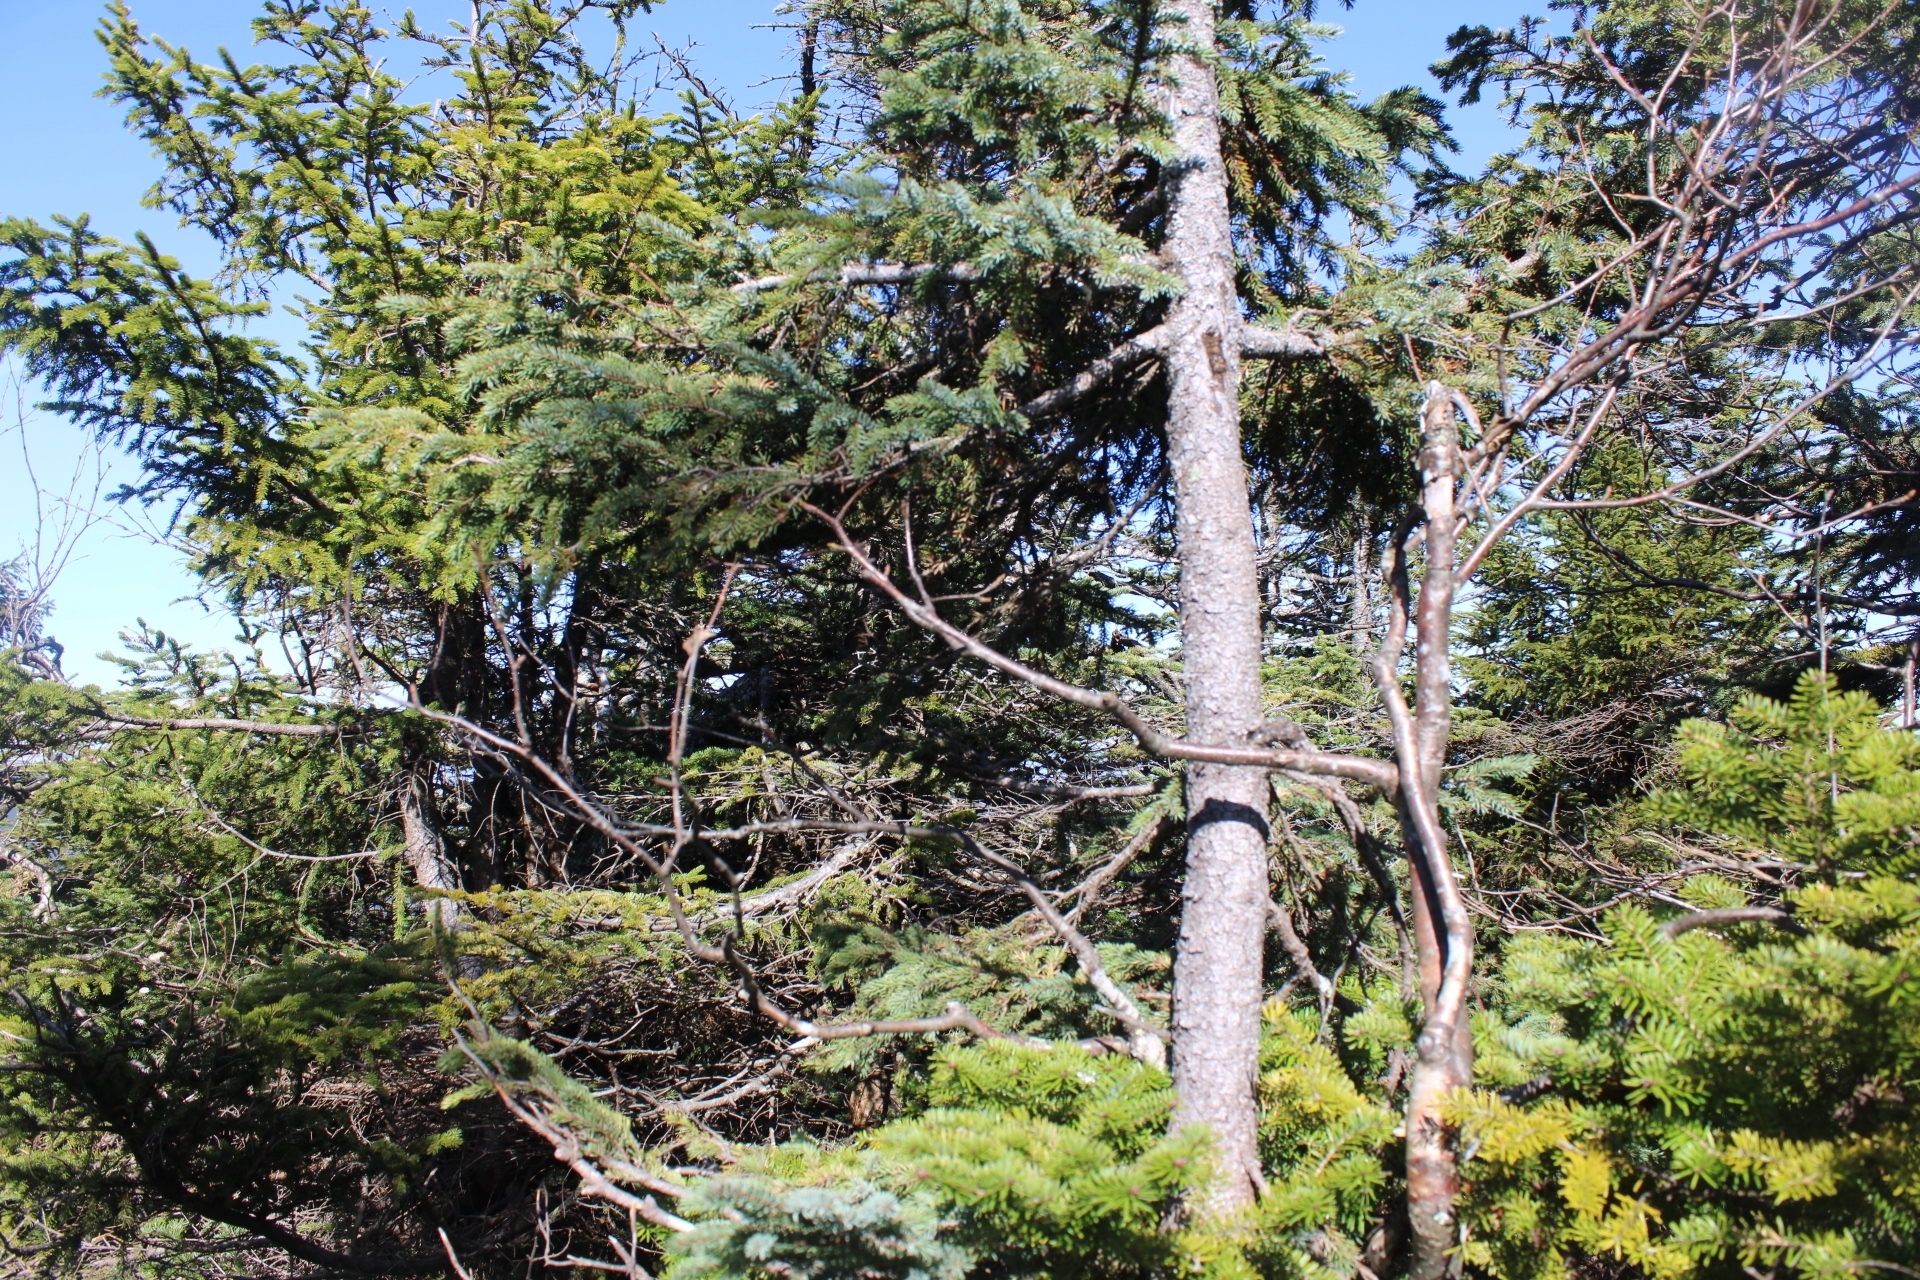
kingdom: Plantae
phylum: Tracheophyta
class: Pinopsida
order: Pinales
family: Pinaceae
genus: Picea
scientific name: Picea mariana
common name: Black spruce
